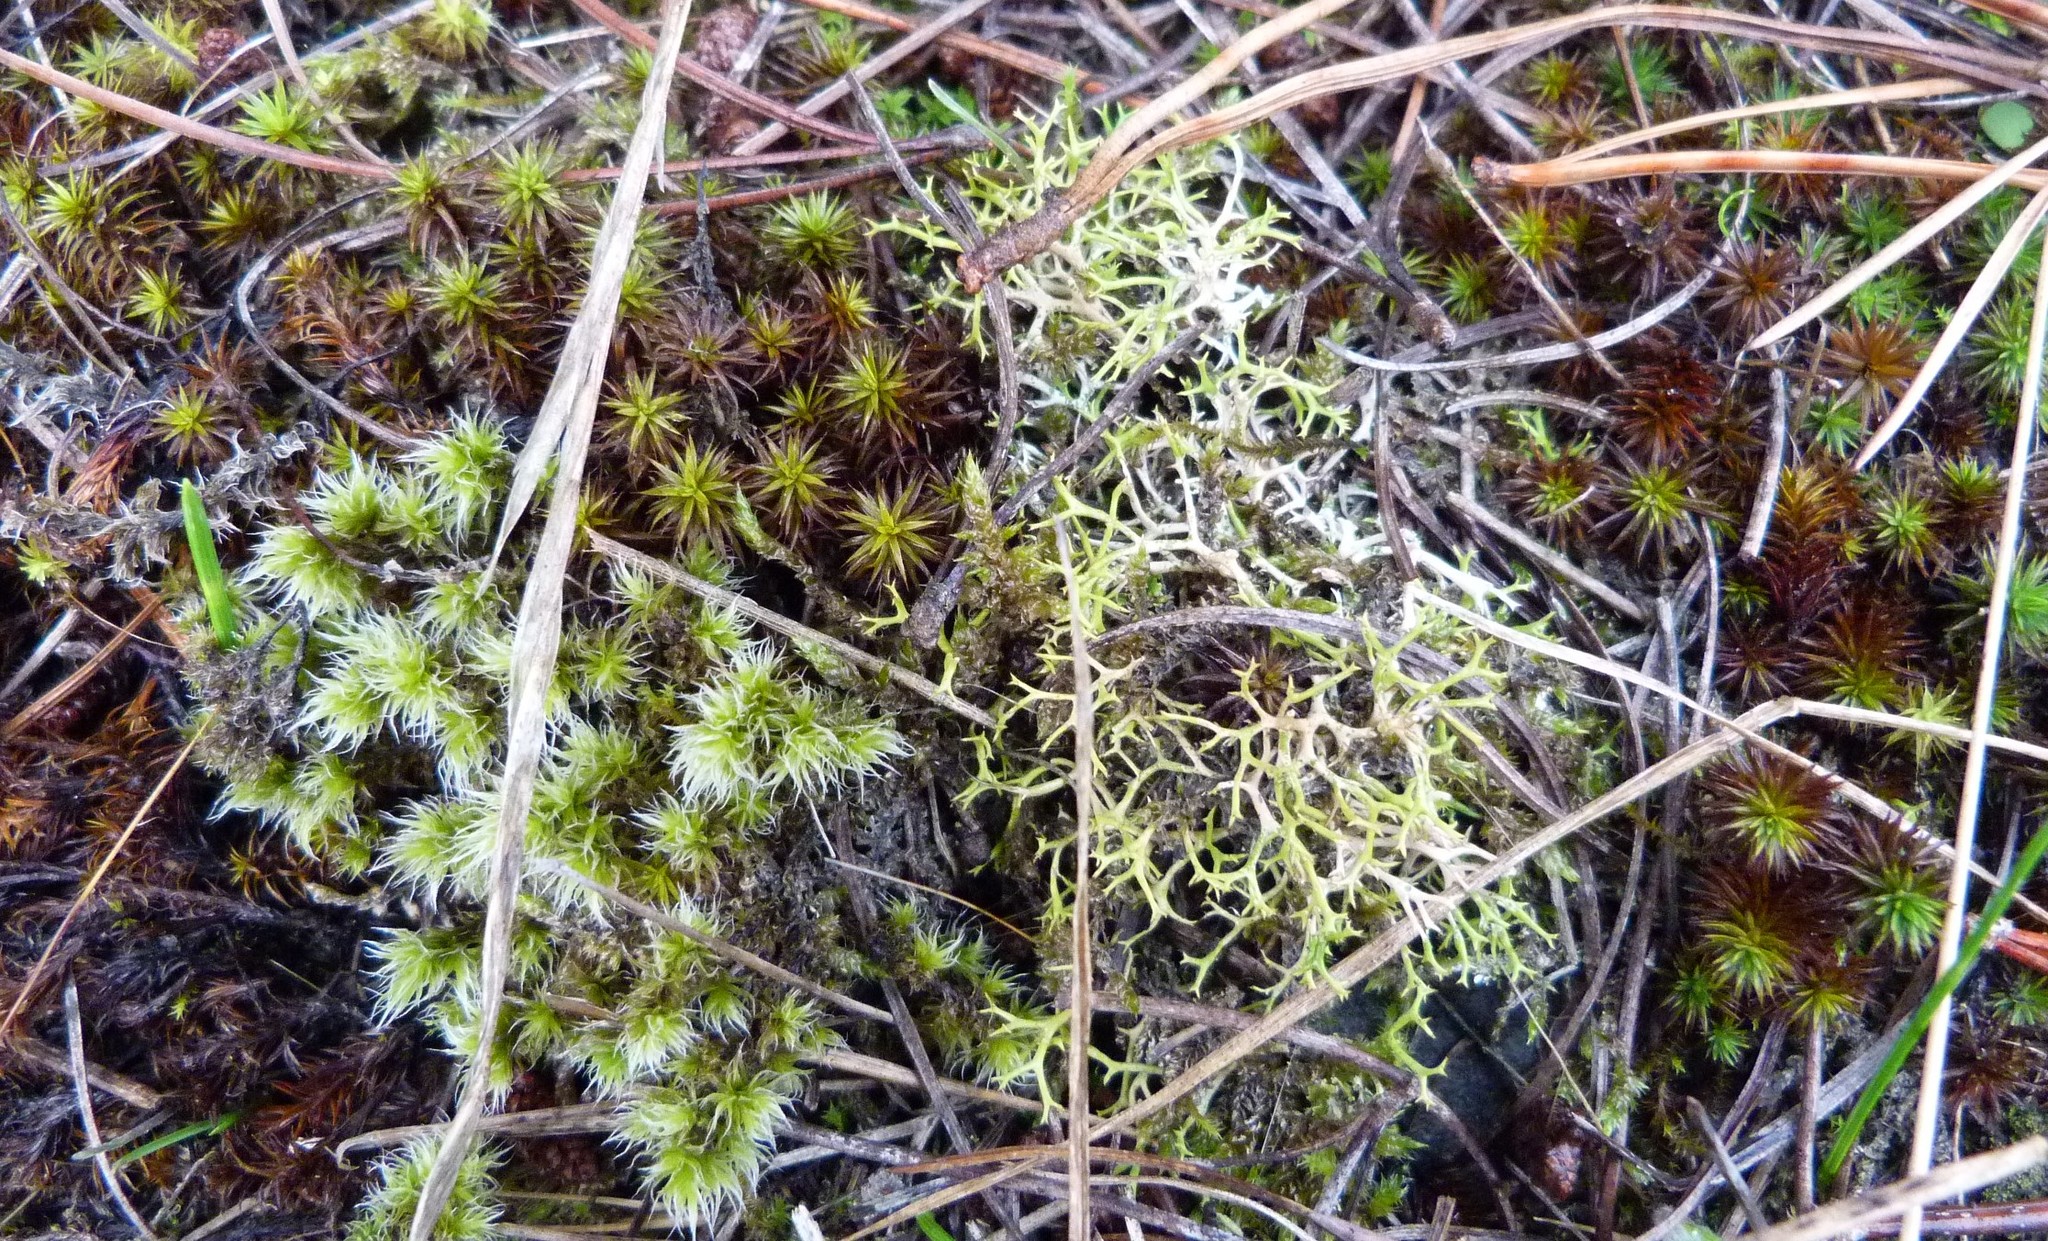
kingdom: Plantae
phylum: Bryophyta
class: Bryopsida
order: Grimmiales
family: Grimmiaceae
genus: Racomitrium
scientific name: Racomitrium pruinosum
